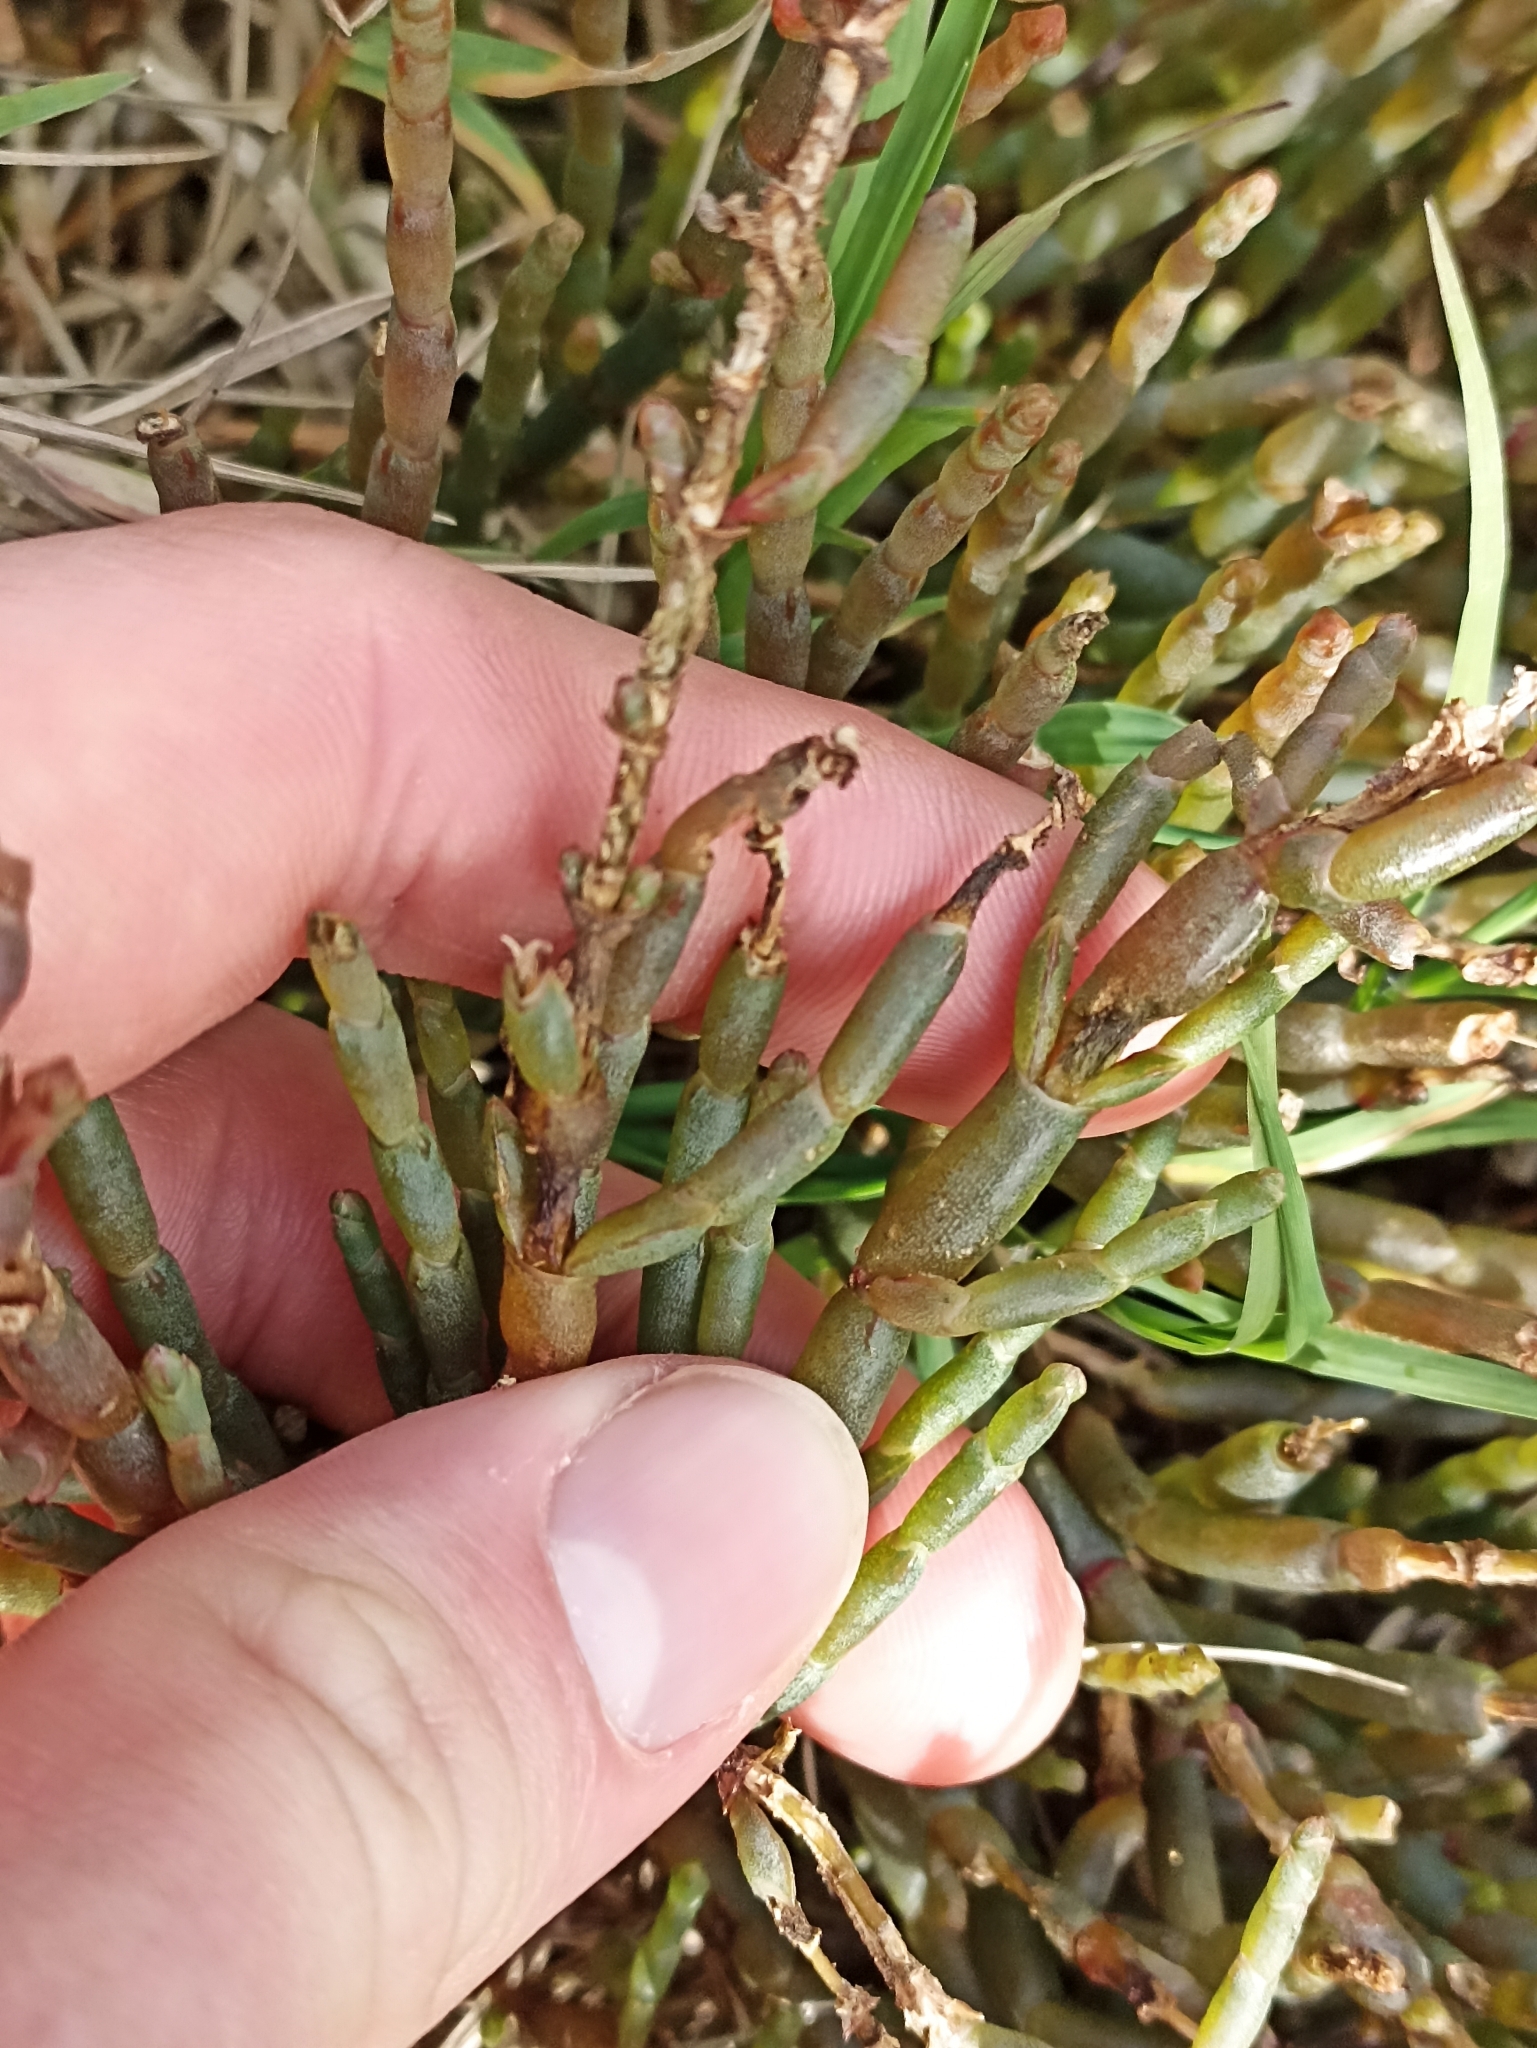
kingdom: Plantae
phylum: Tracheophyta
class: Magnoliopsida
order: Caryophyllales
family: Amaranthaceae
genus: Salicornia
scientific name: Salicornia quinqueflora
